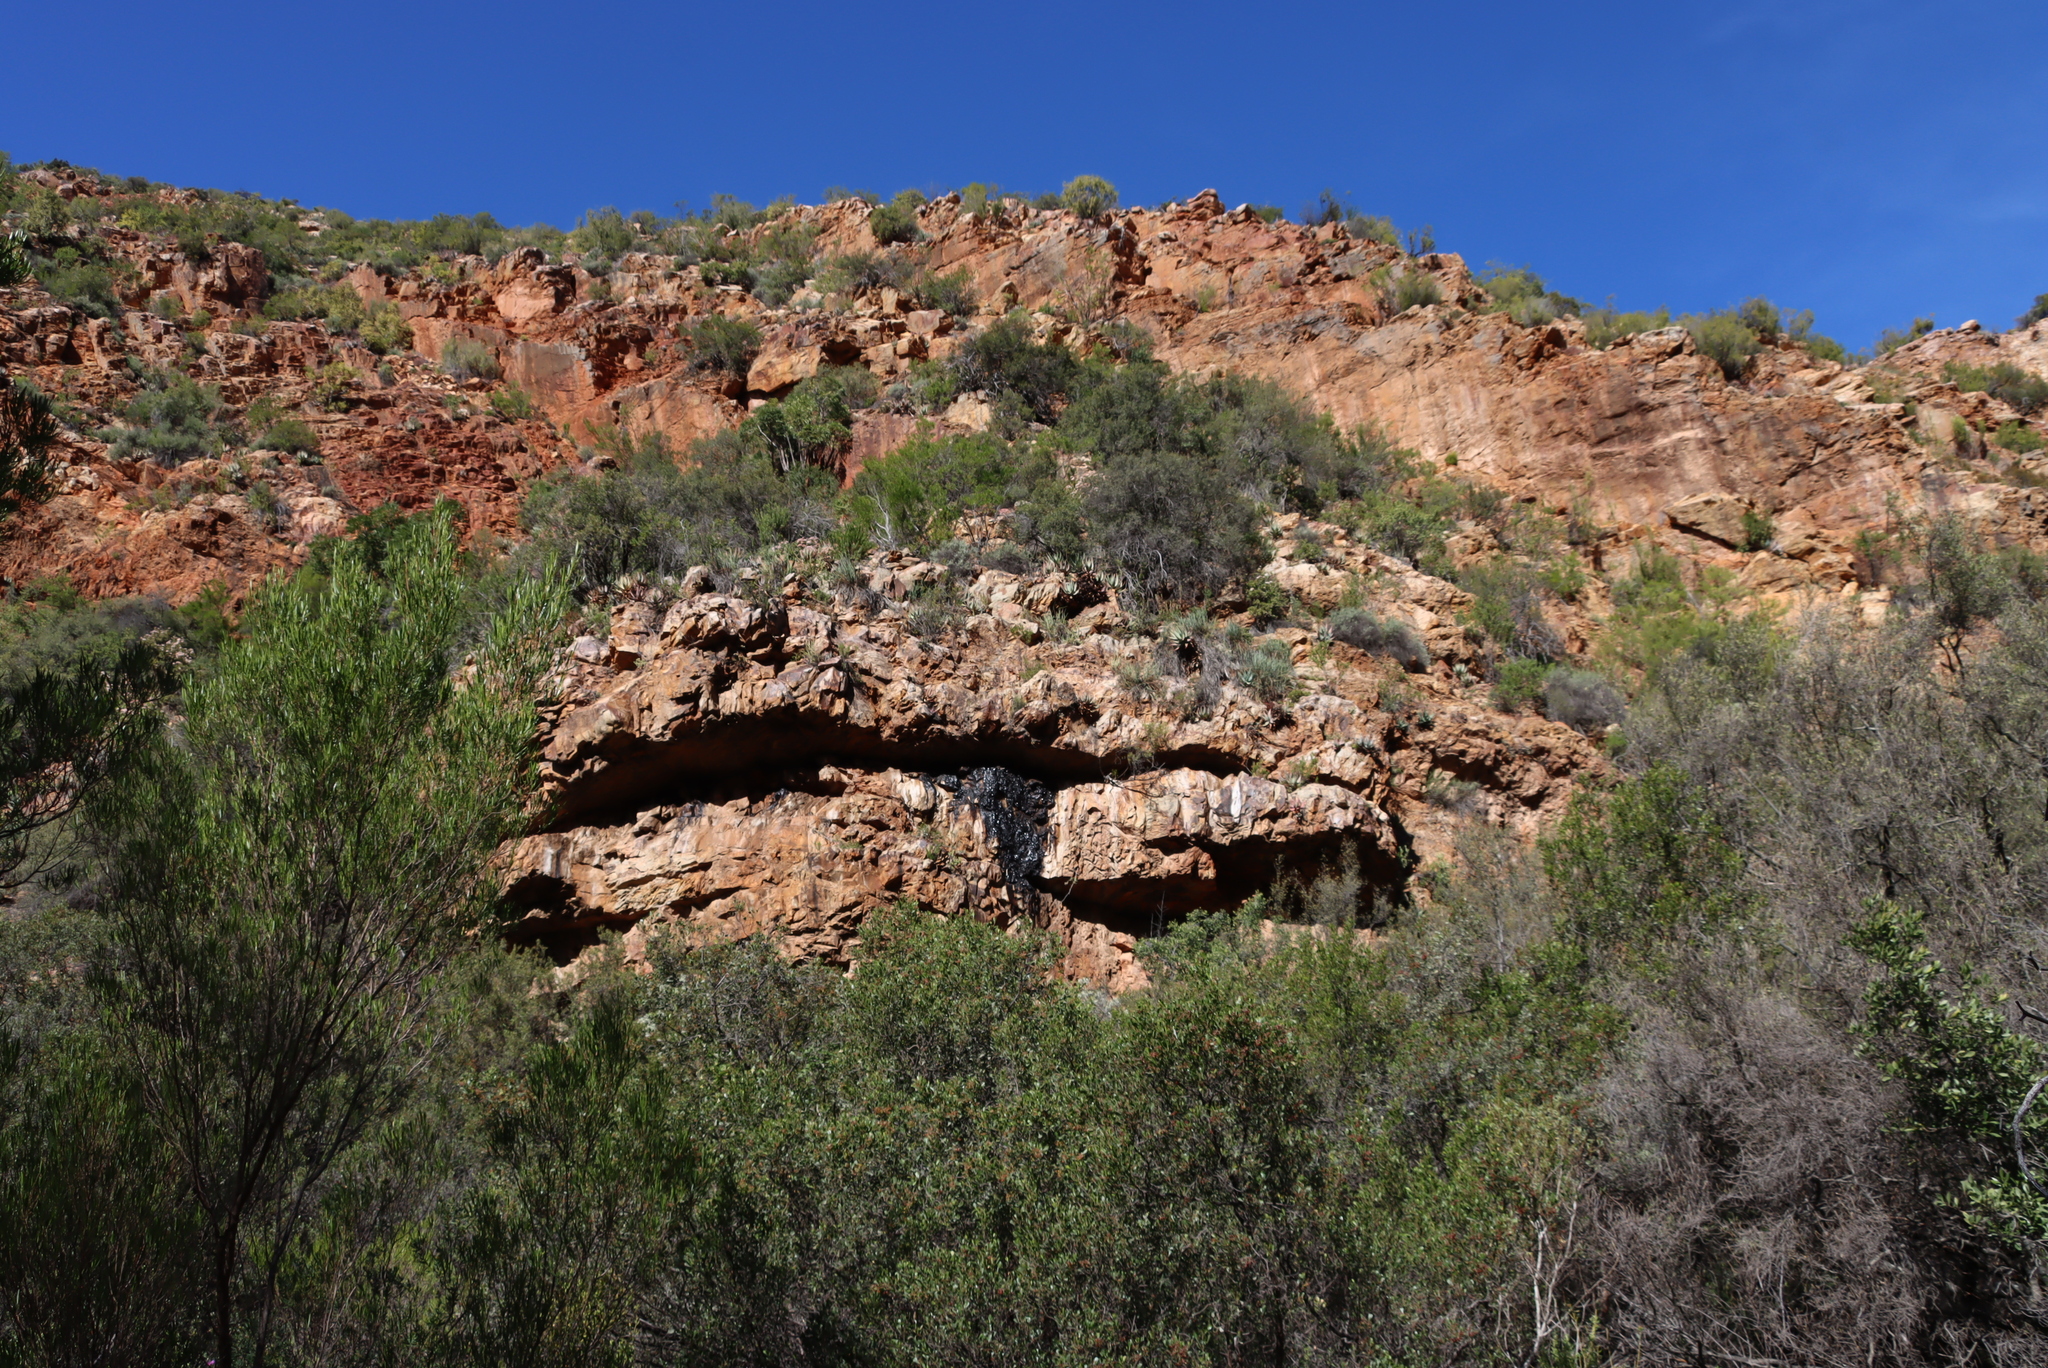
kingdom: Animalia
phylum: Chordata
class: Mammalia
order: Hyracoidea
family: Procaviidae
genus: Procavia
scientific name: Procavia capensis
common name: Rock hyrax
